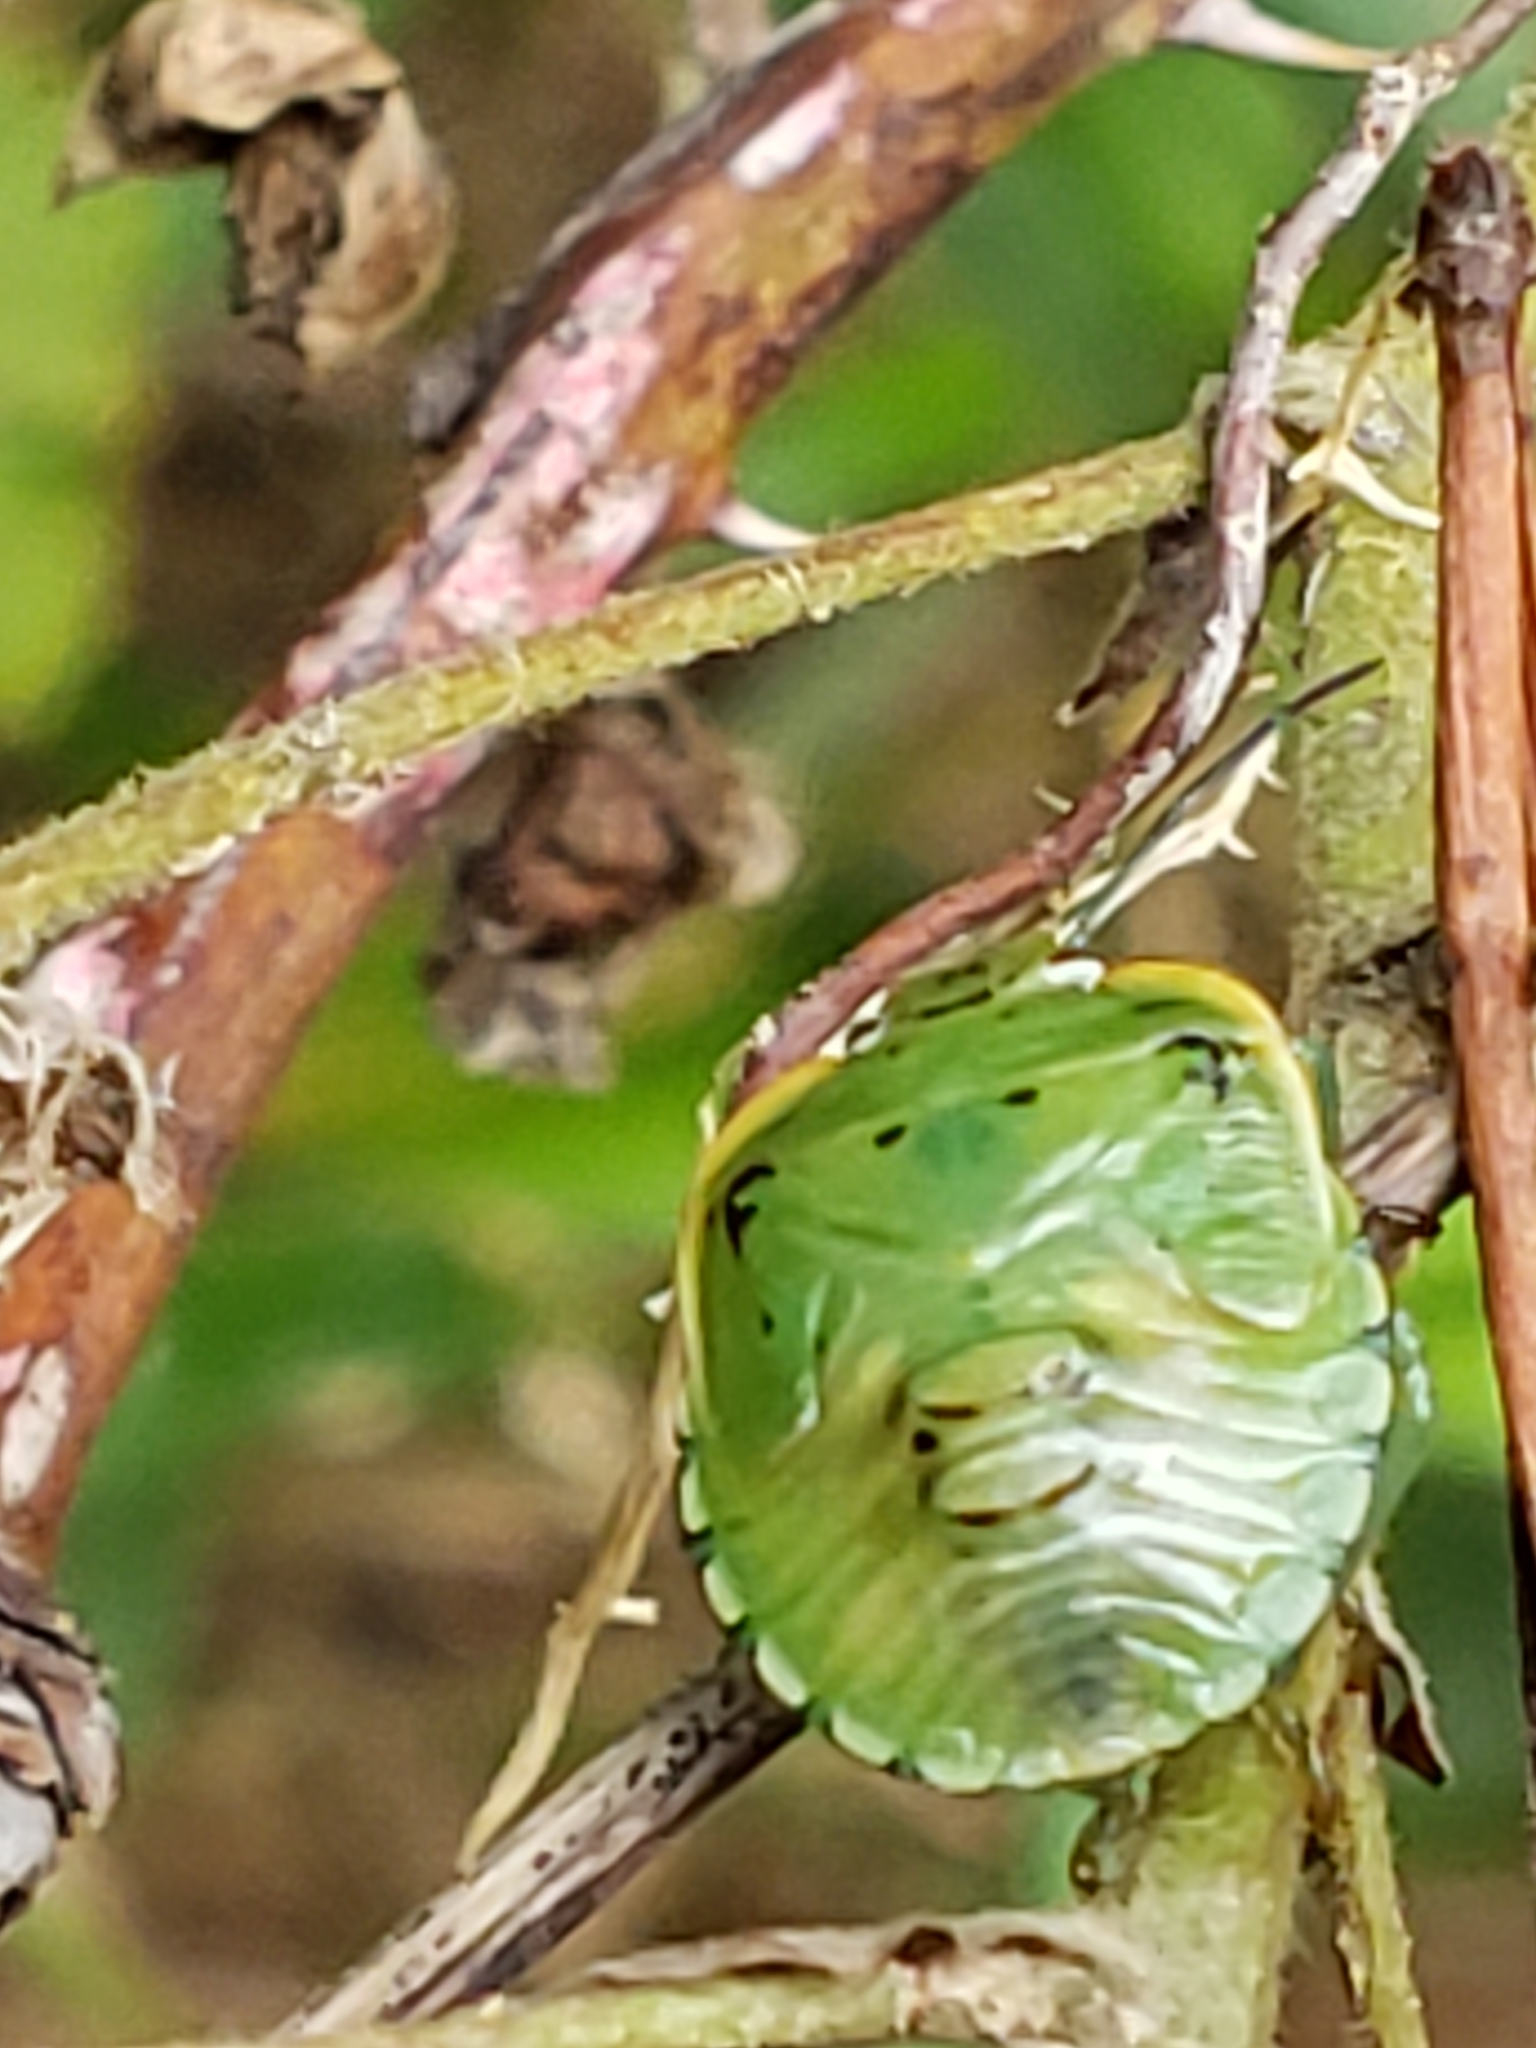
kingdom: Animalia
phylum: Arthropoda
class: Insecta
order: Hemiptera
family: Pentatomidae
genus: Chinavia
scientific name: Chinavia hilaris
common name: Green stink bug
